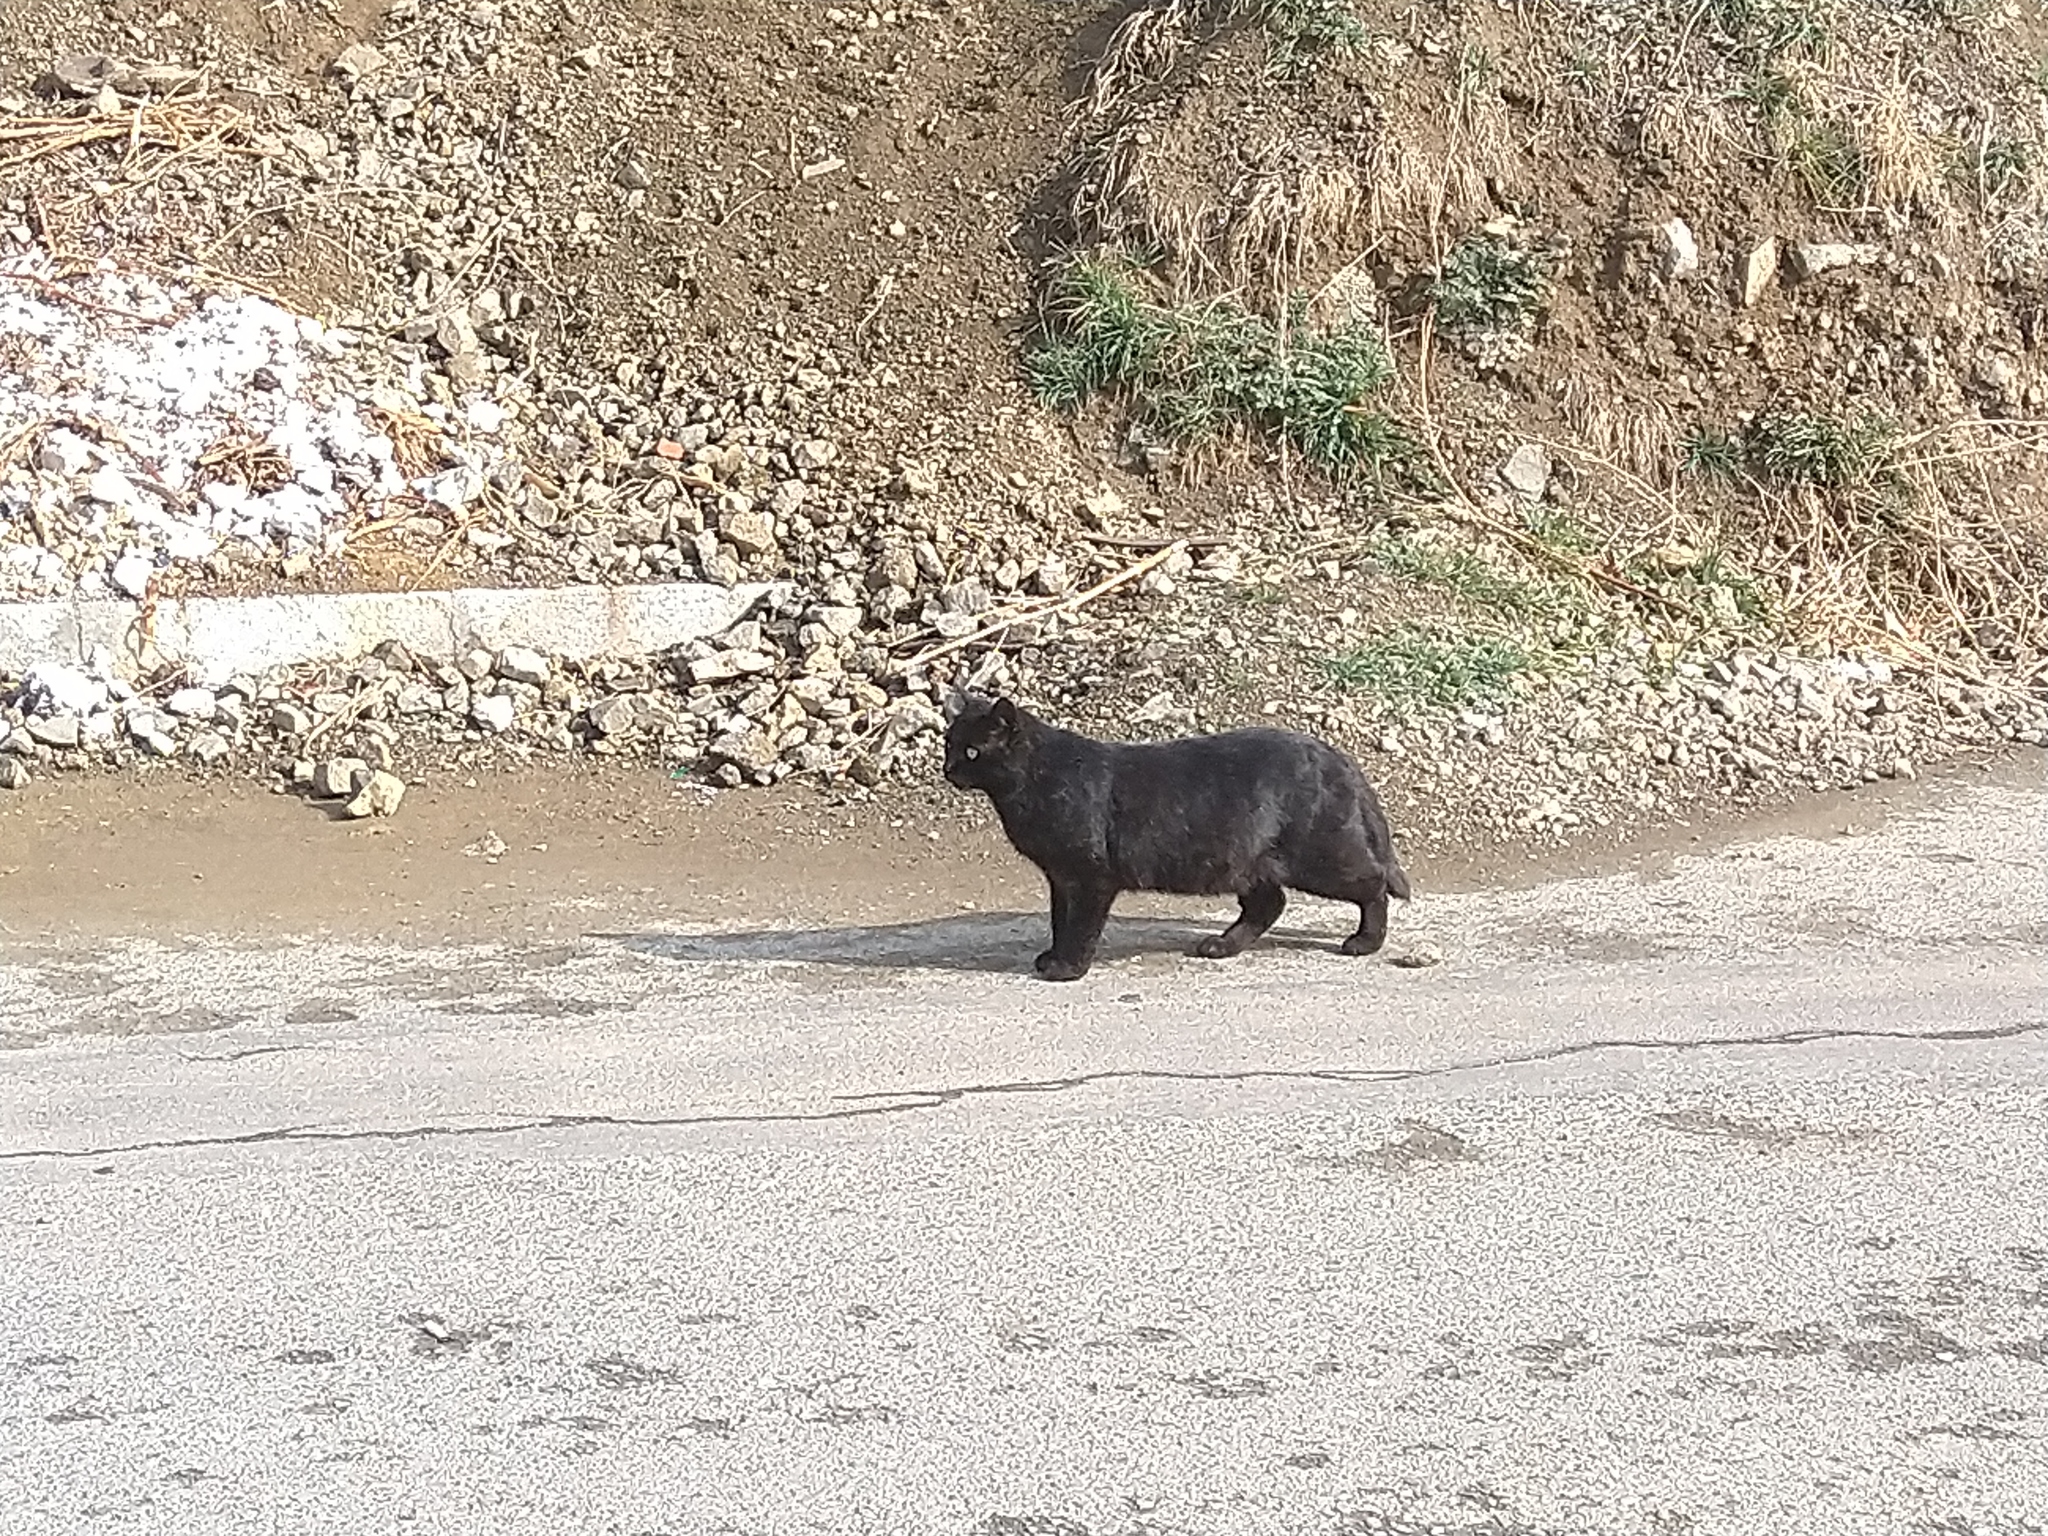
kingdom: Animalia
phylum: Chordata
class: Mammalia
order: Carnivora
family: Felidae
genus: Felis
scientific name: Felis catus
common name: Domestic cat
